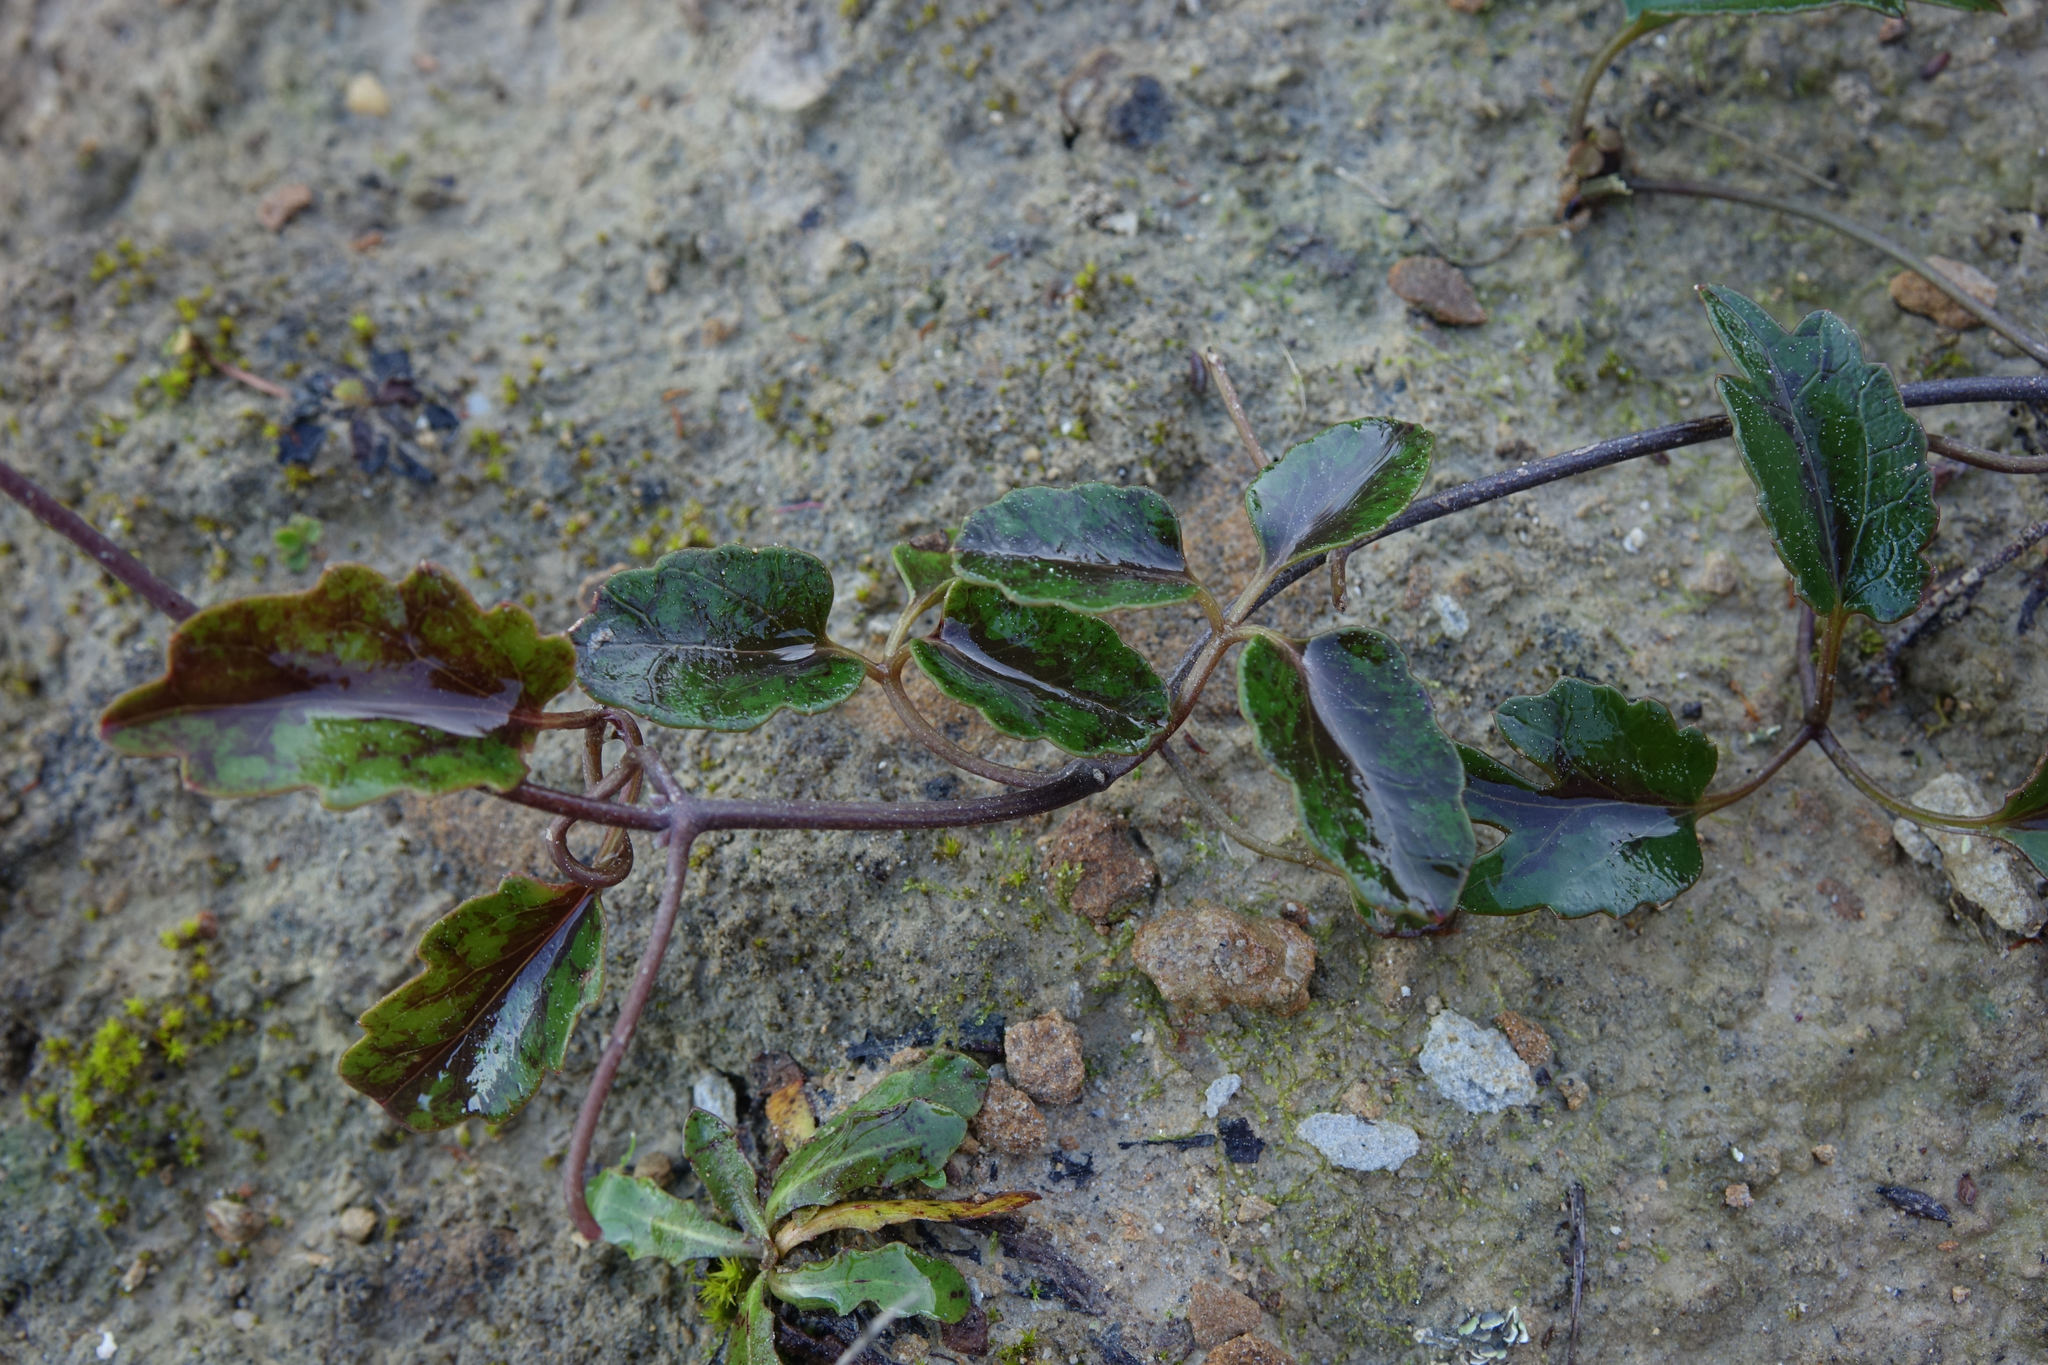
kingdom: Plantae
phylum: Tracheophyta
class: Magnoliopsida
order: Ranunculales
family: Ranunculaceae
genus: Clematis
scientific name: Clematis paniculata
